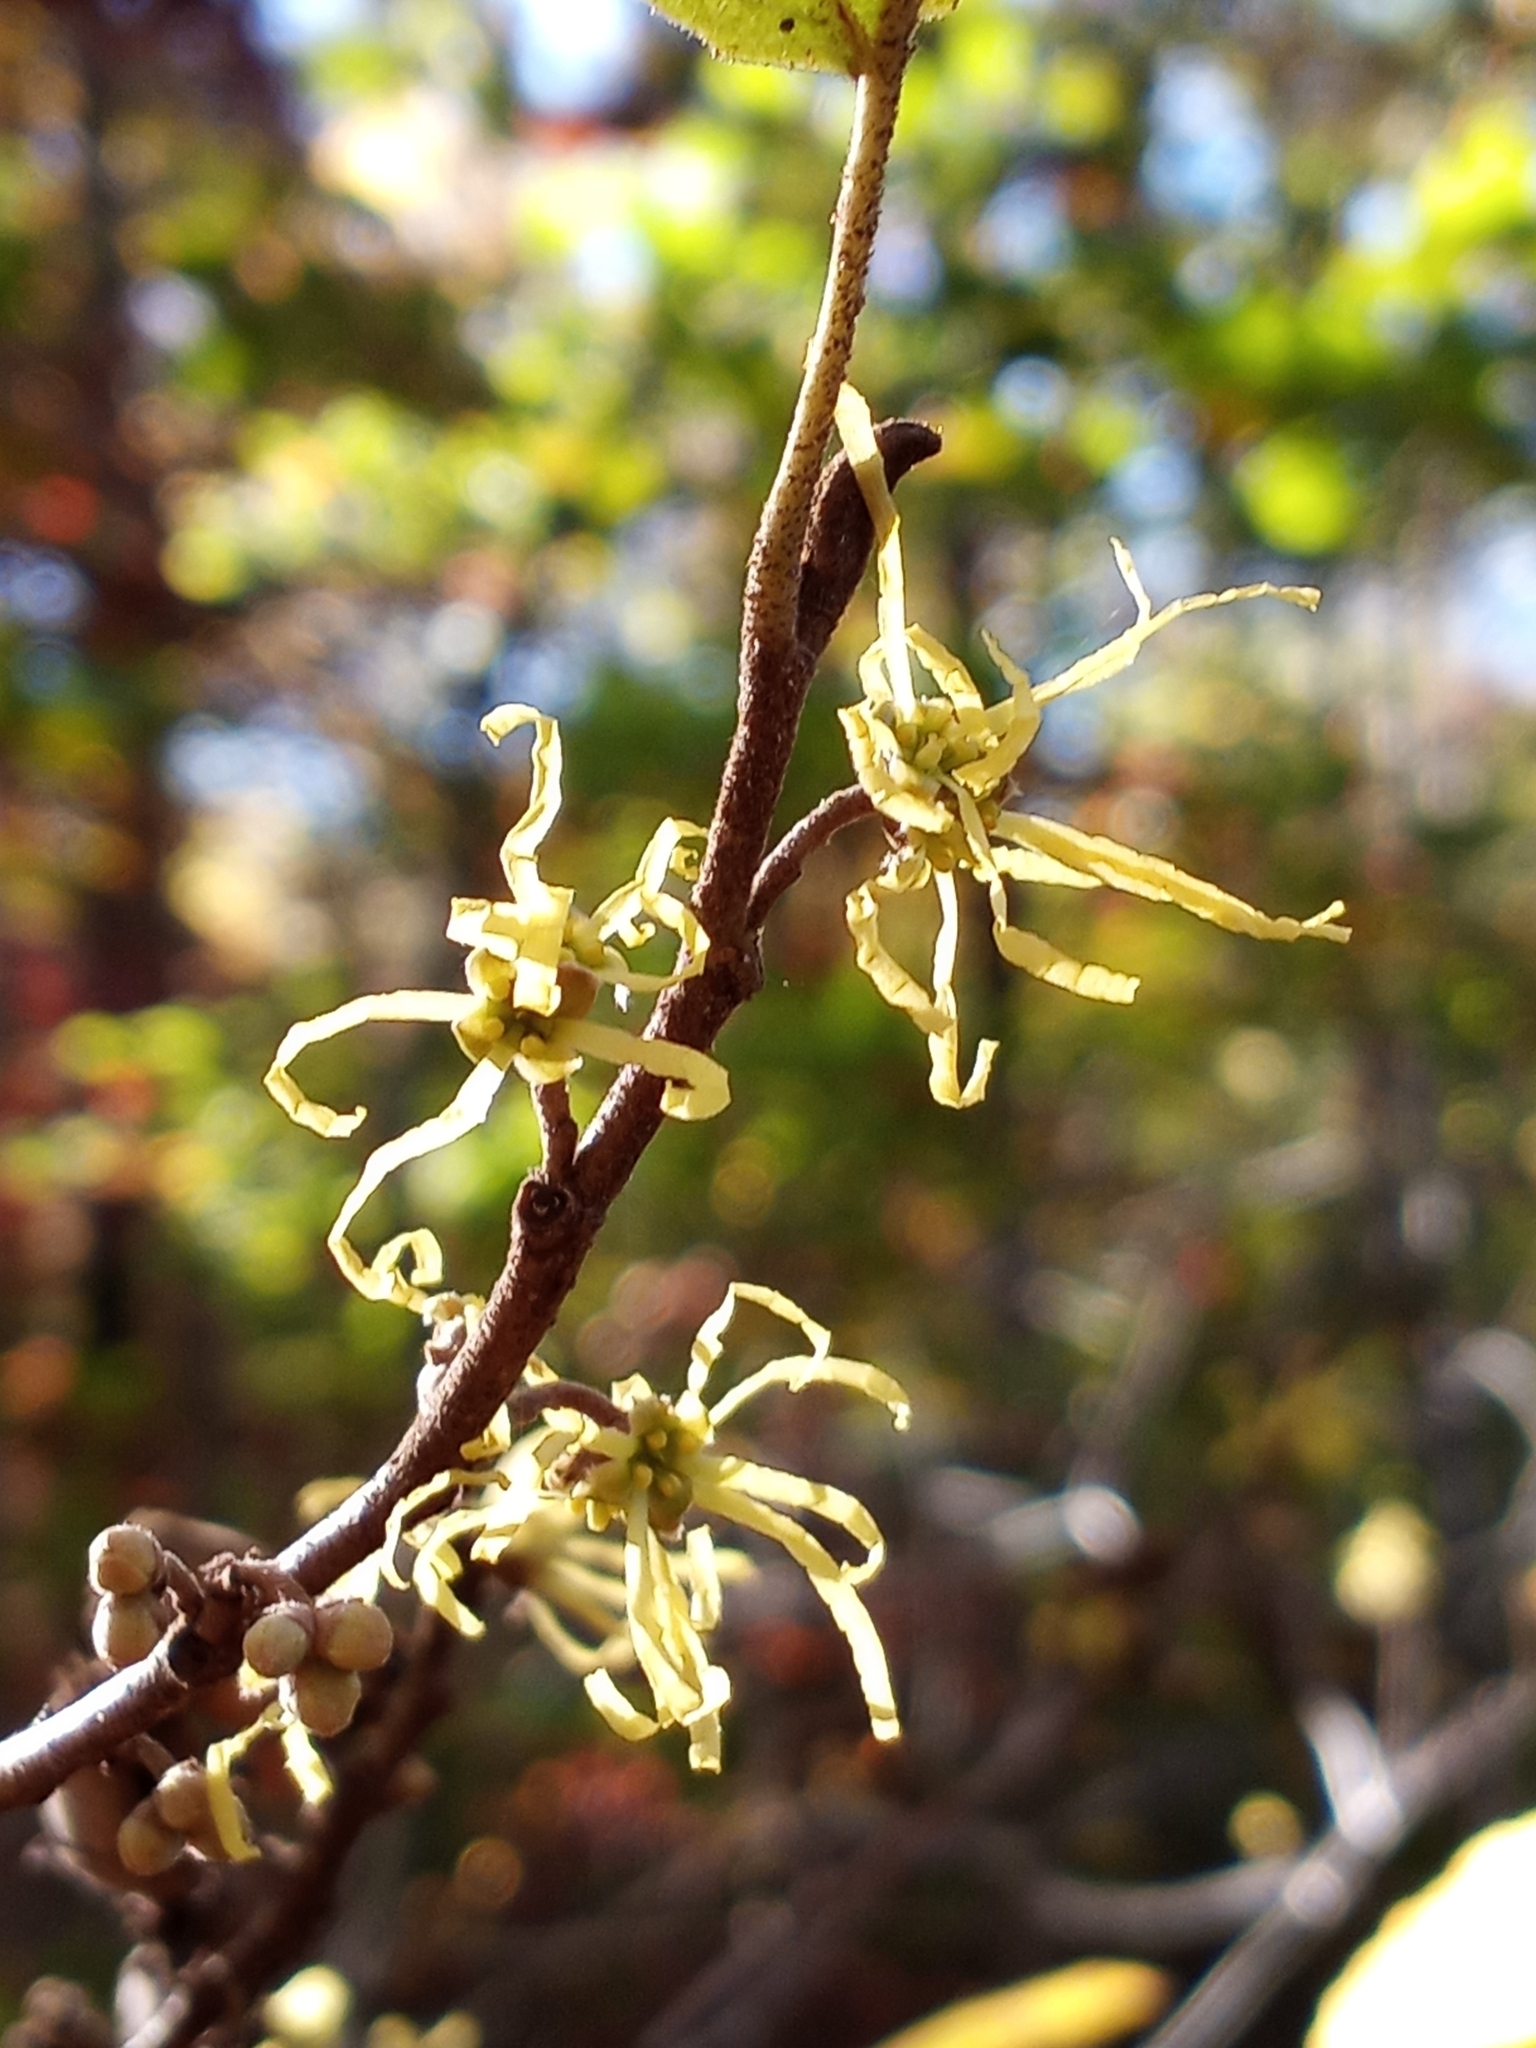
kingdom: Plantae
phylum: Tracheophyta
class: Magnoliopsida
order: Saxifragales
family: Hamamelidaceae
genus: Hamamelis
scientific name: Hamamelis virginiana
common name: Witch-hazel
